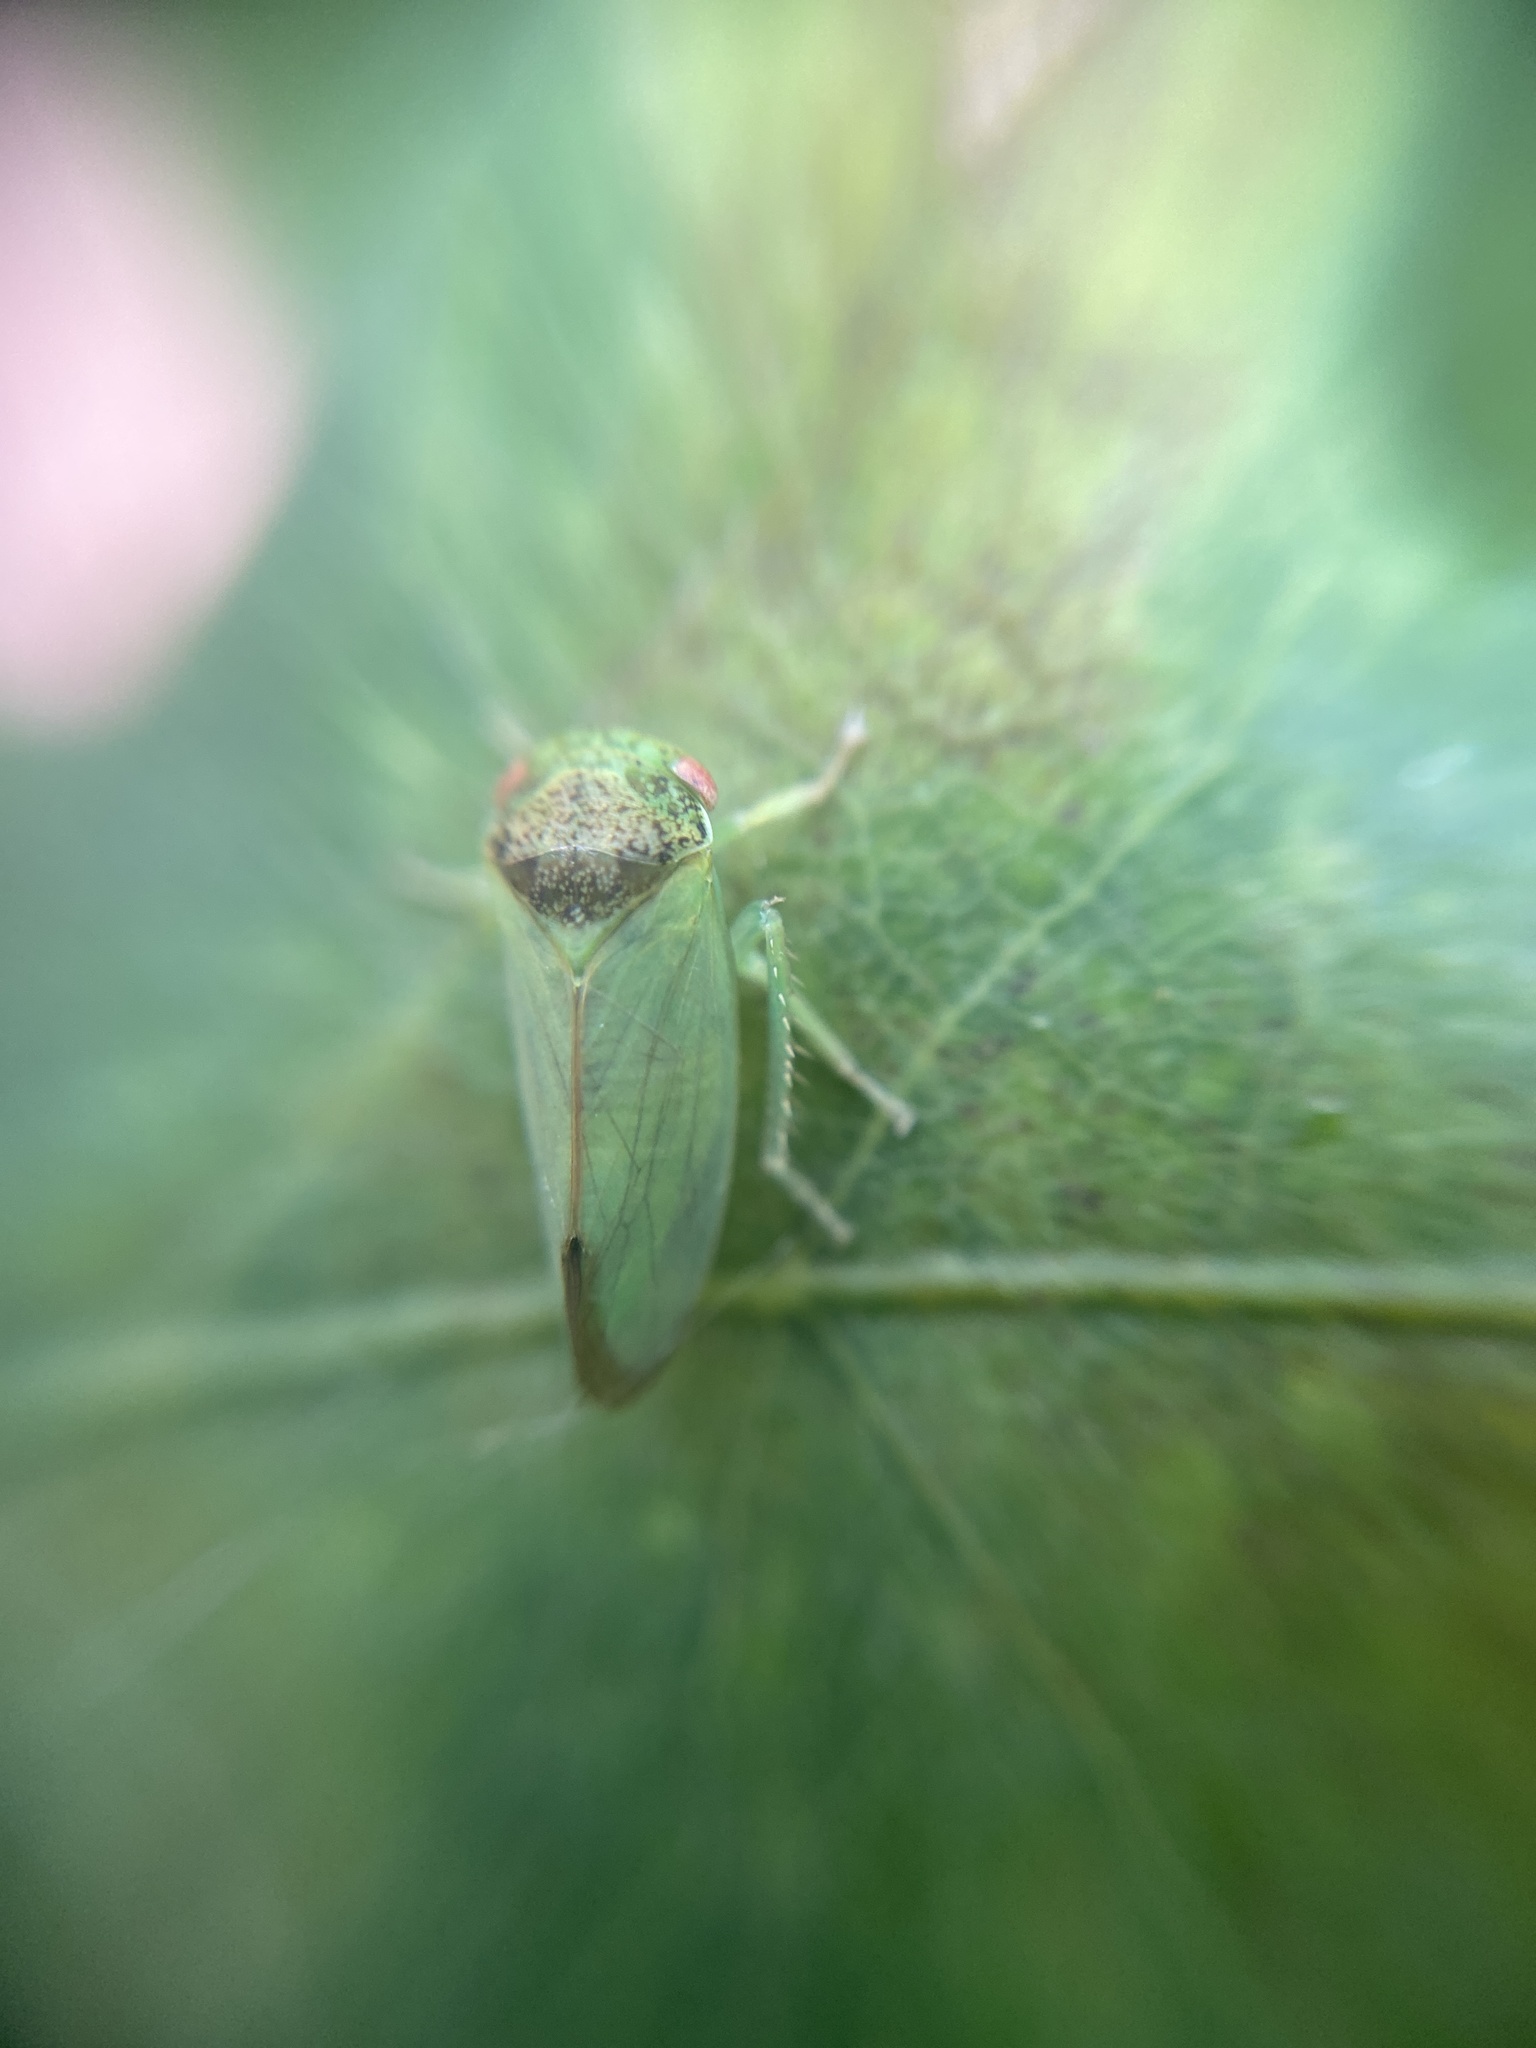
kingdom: Animalia
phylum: Arthropoda
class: Insecta
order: Hemiptera
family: Cicadellidae
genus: Iassus
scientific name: Iassus lanio
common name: Leafhopper
